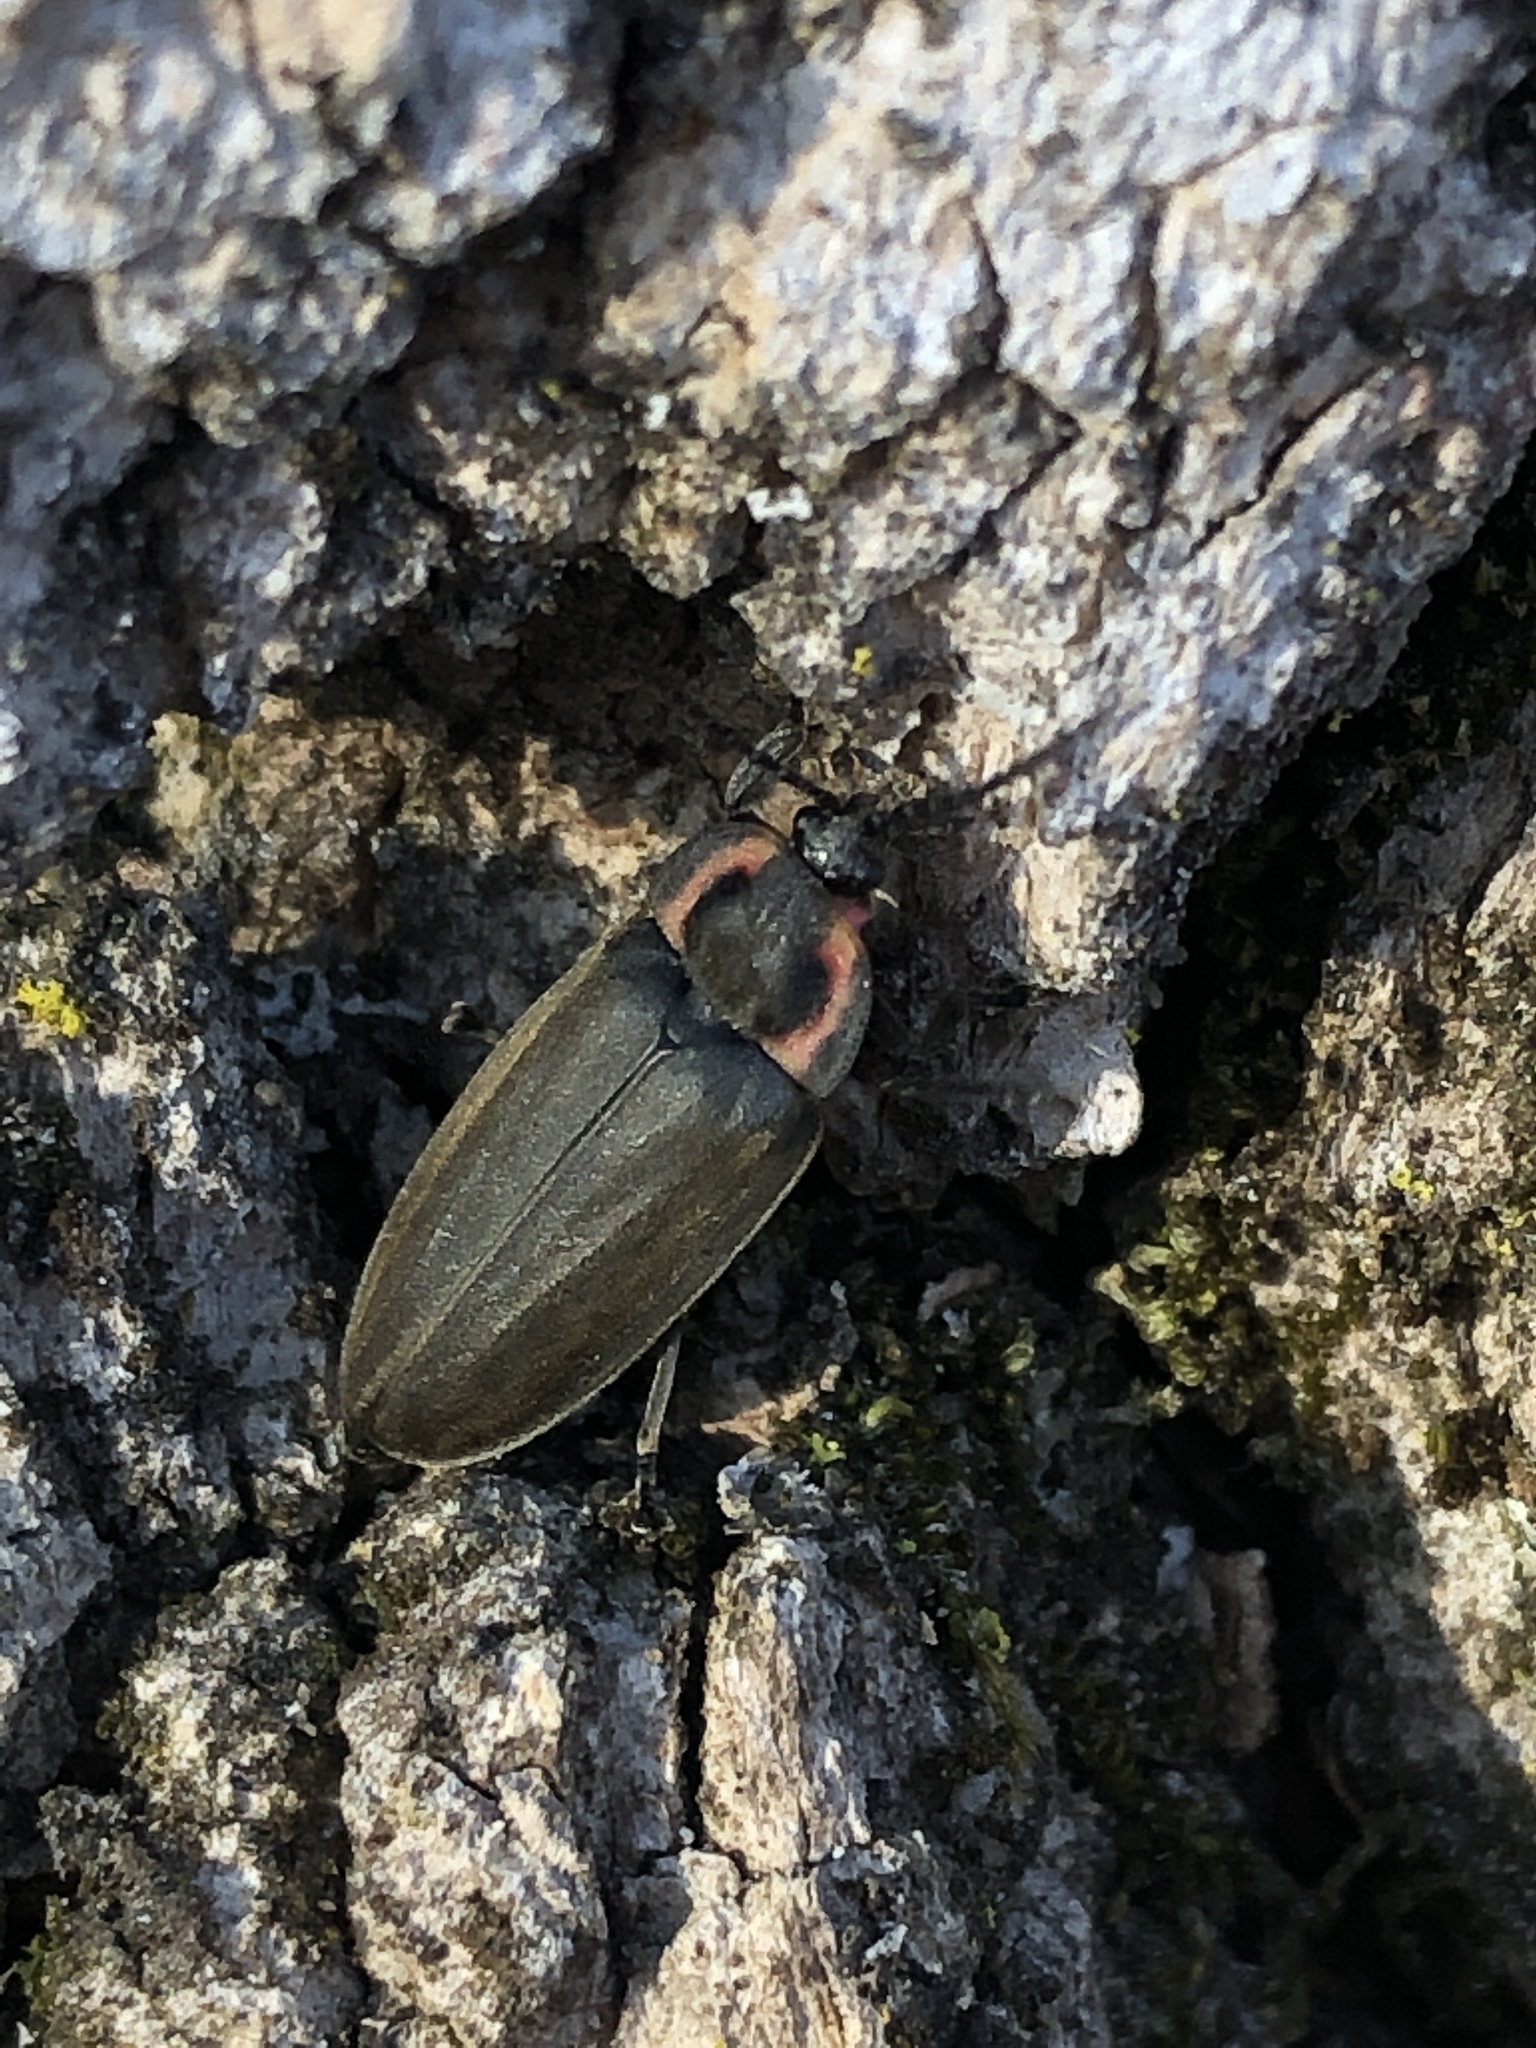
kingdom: Animalia
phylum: Arthropoda
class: Insecta
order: Coleoptera
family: Lampyridae
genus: Photinus
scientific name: Photinus corrusca
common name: Winter firefly
